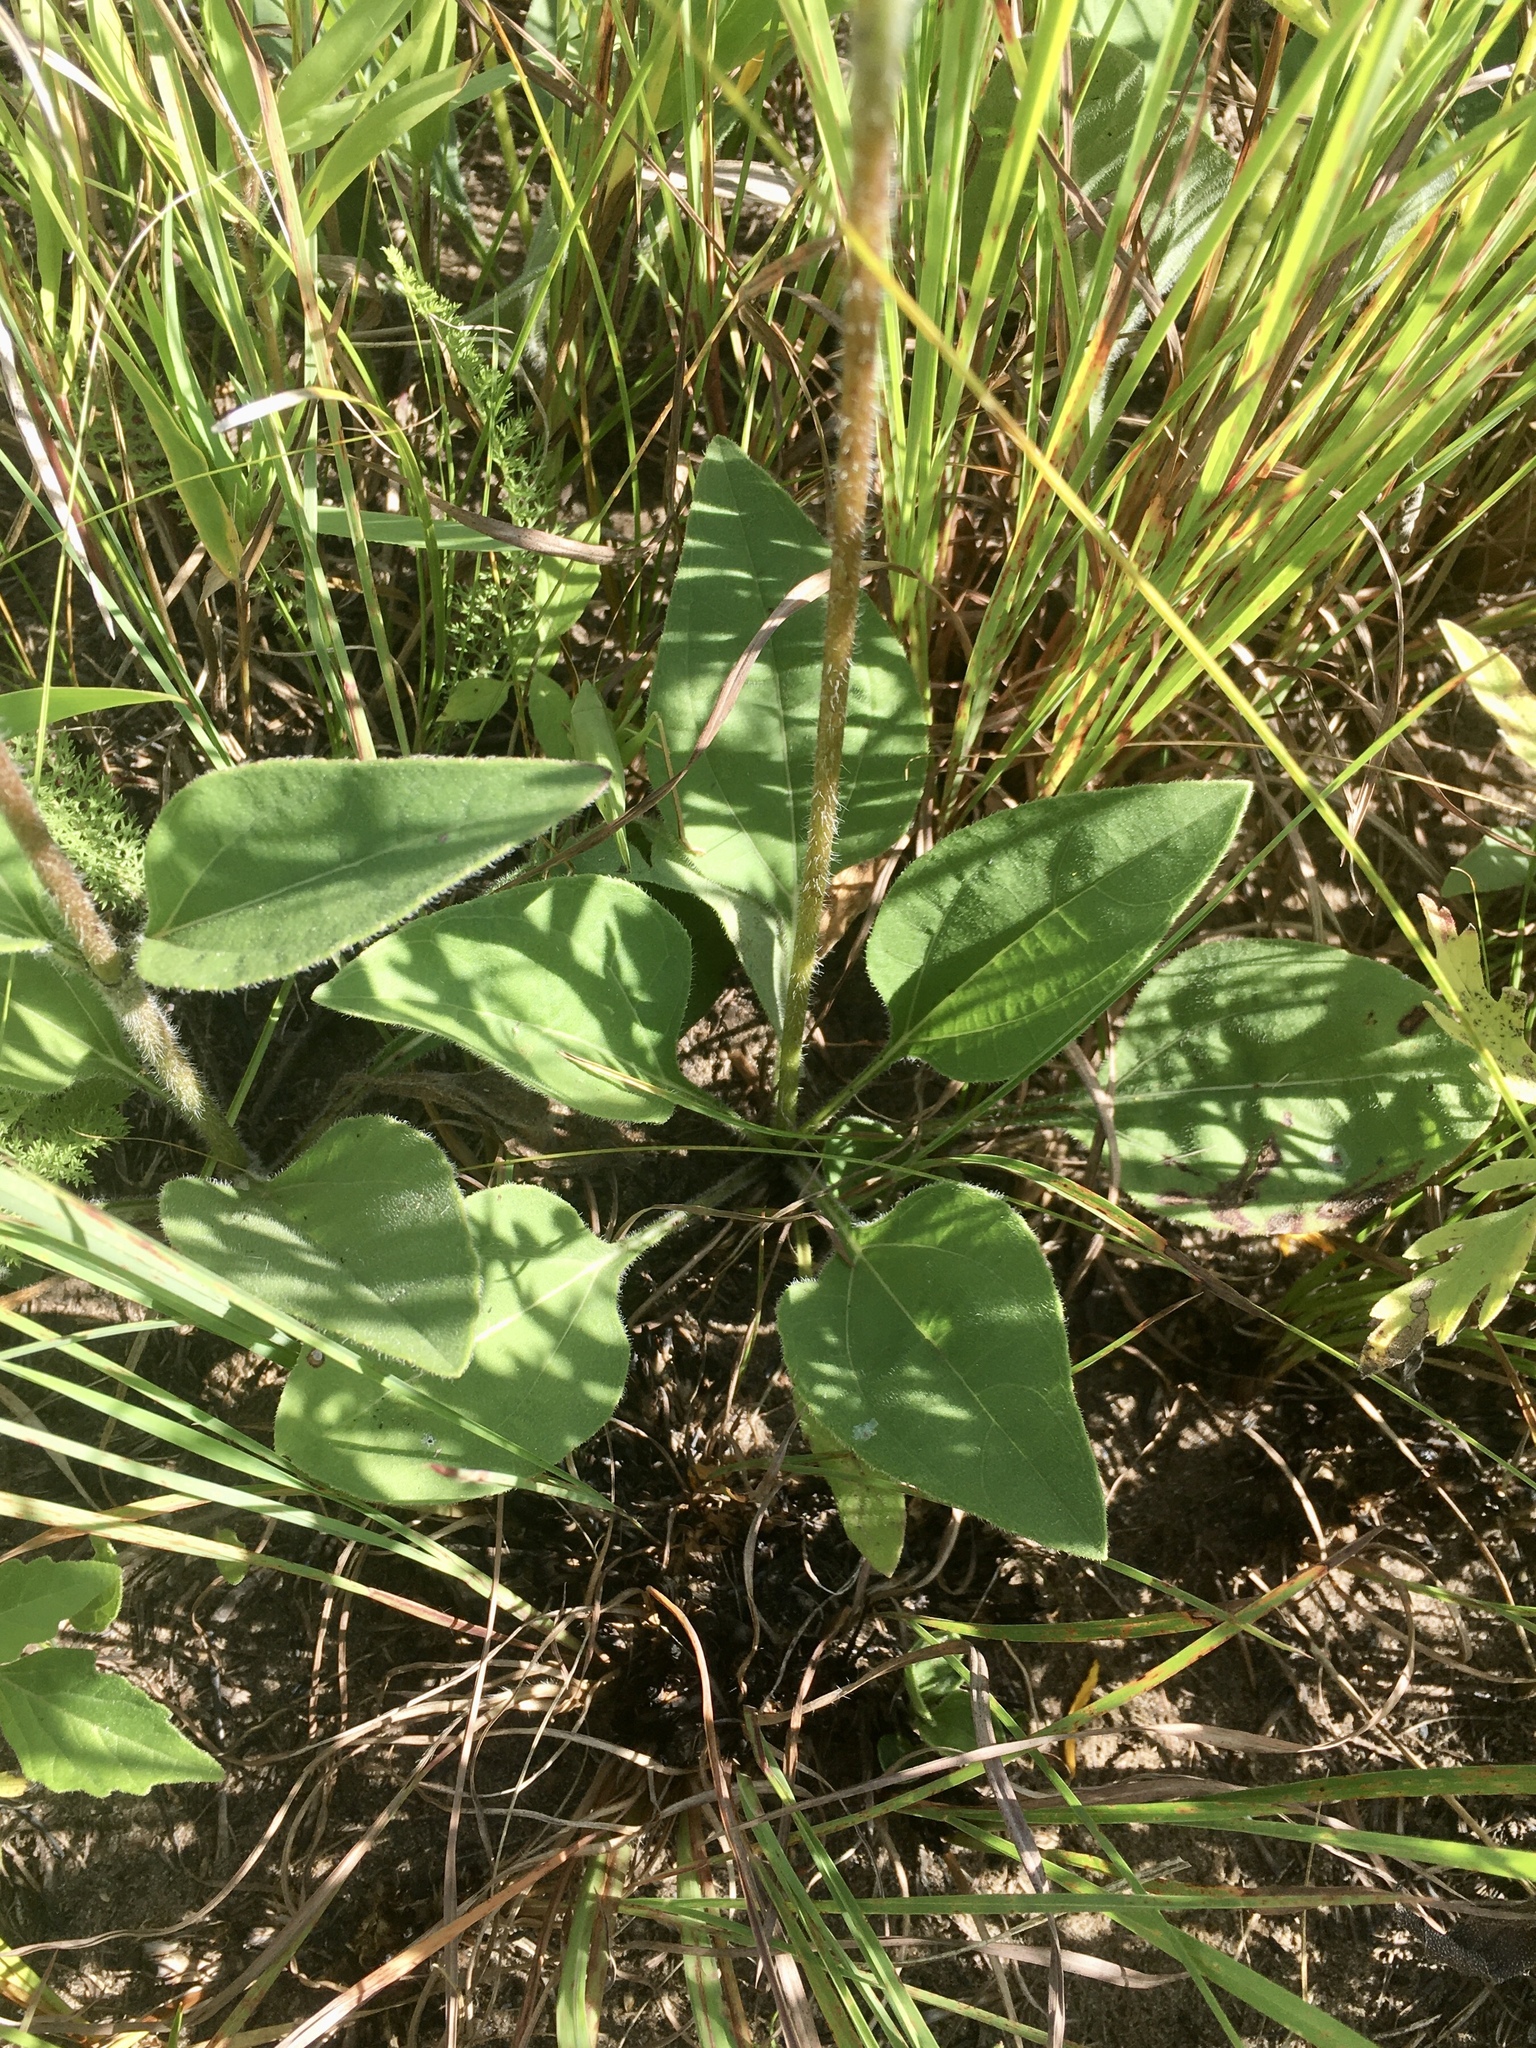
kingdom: Plantae
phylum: Tracheophyta
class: Magnoliopsida
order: Asterales
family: Asteraceae
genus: Helianthus
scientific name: Helianthus occidentalis
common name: Western sunflower
